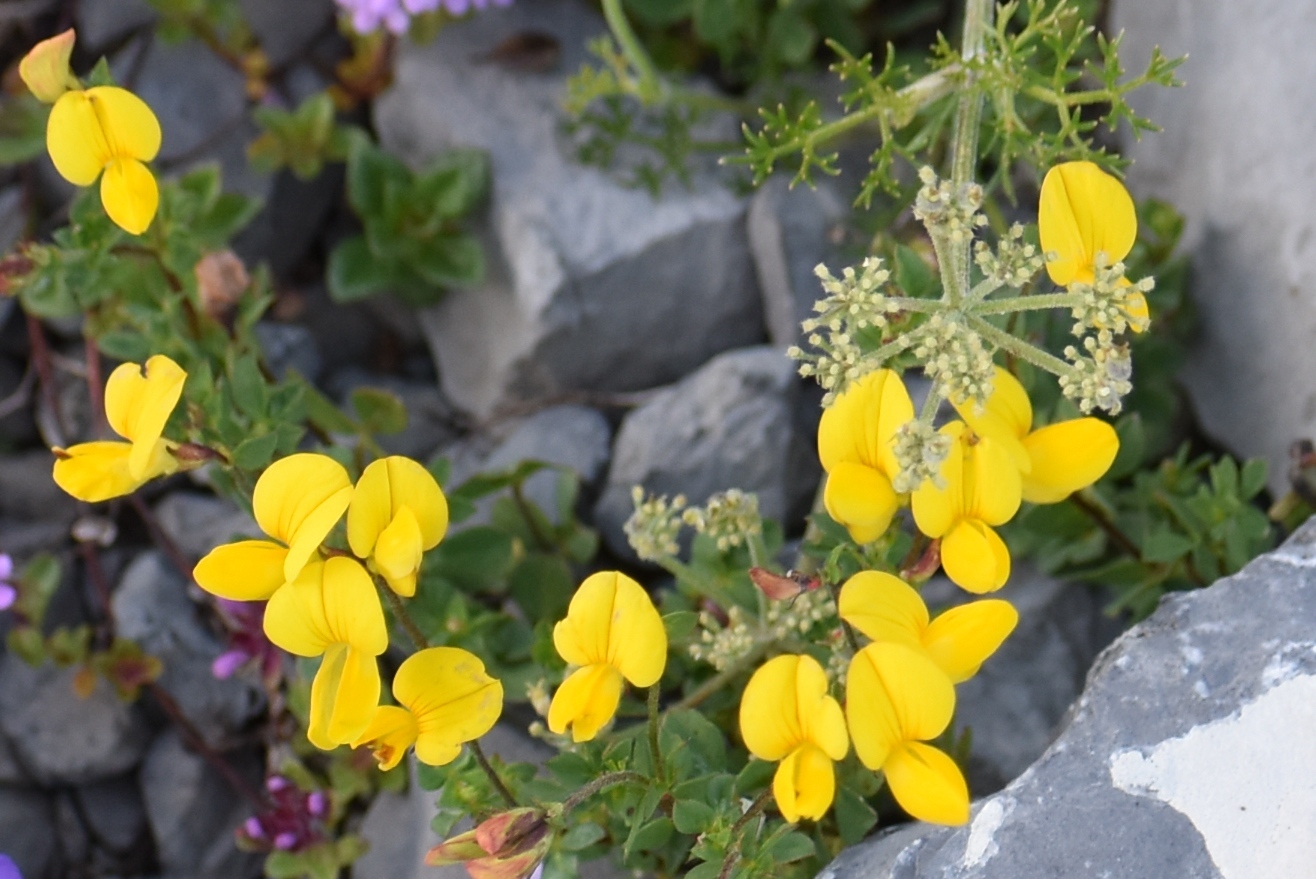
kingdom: Plantae
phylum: Tracheophyta
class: Magnoliopsida
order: Fabales
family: Fabaceae
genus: Lotus
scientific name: Lotus corniculatus
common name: Common bird's-foot-trefoil
